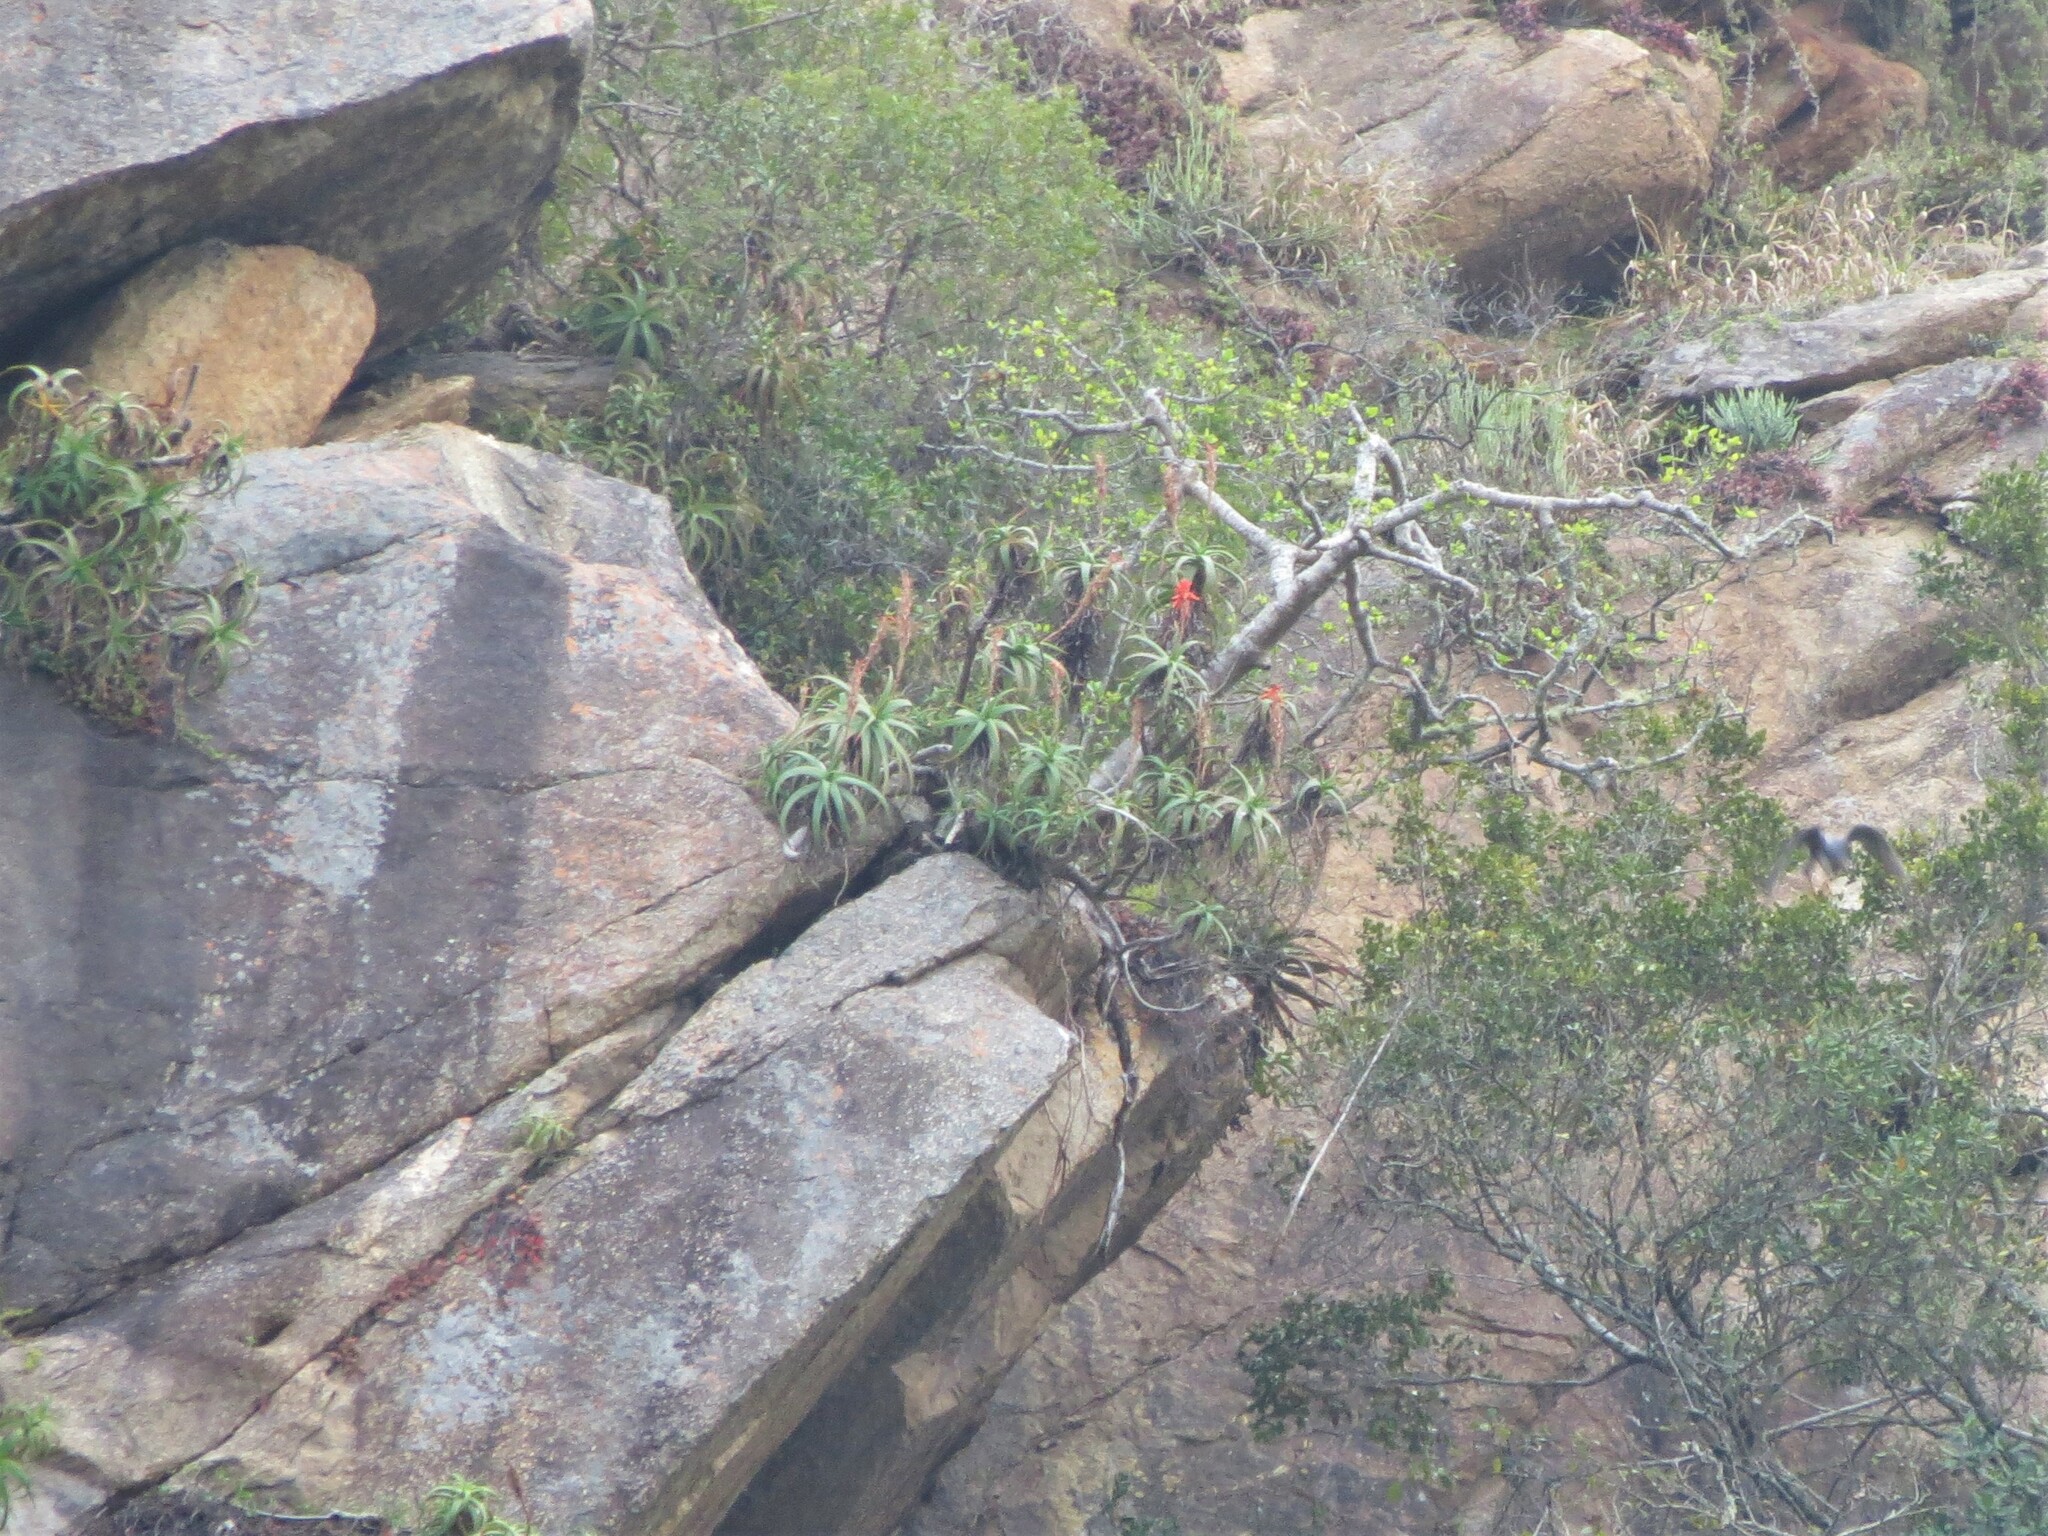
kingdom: Plantae
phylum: Tracheophyta
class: Liliopsida
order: Asparagales
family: Asphodelaceae
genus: Aloe
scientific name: Aloe arborescens
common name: Candelabra aloe
